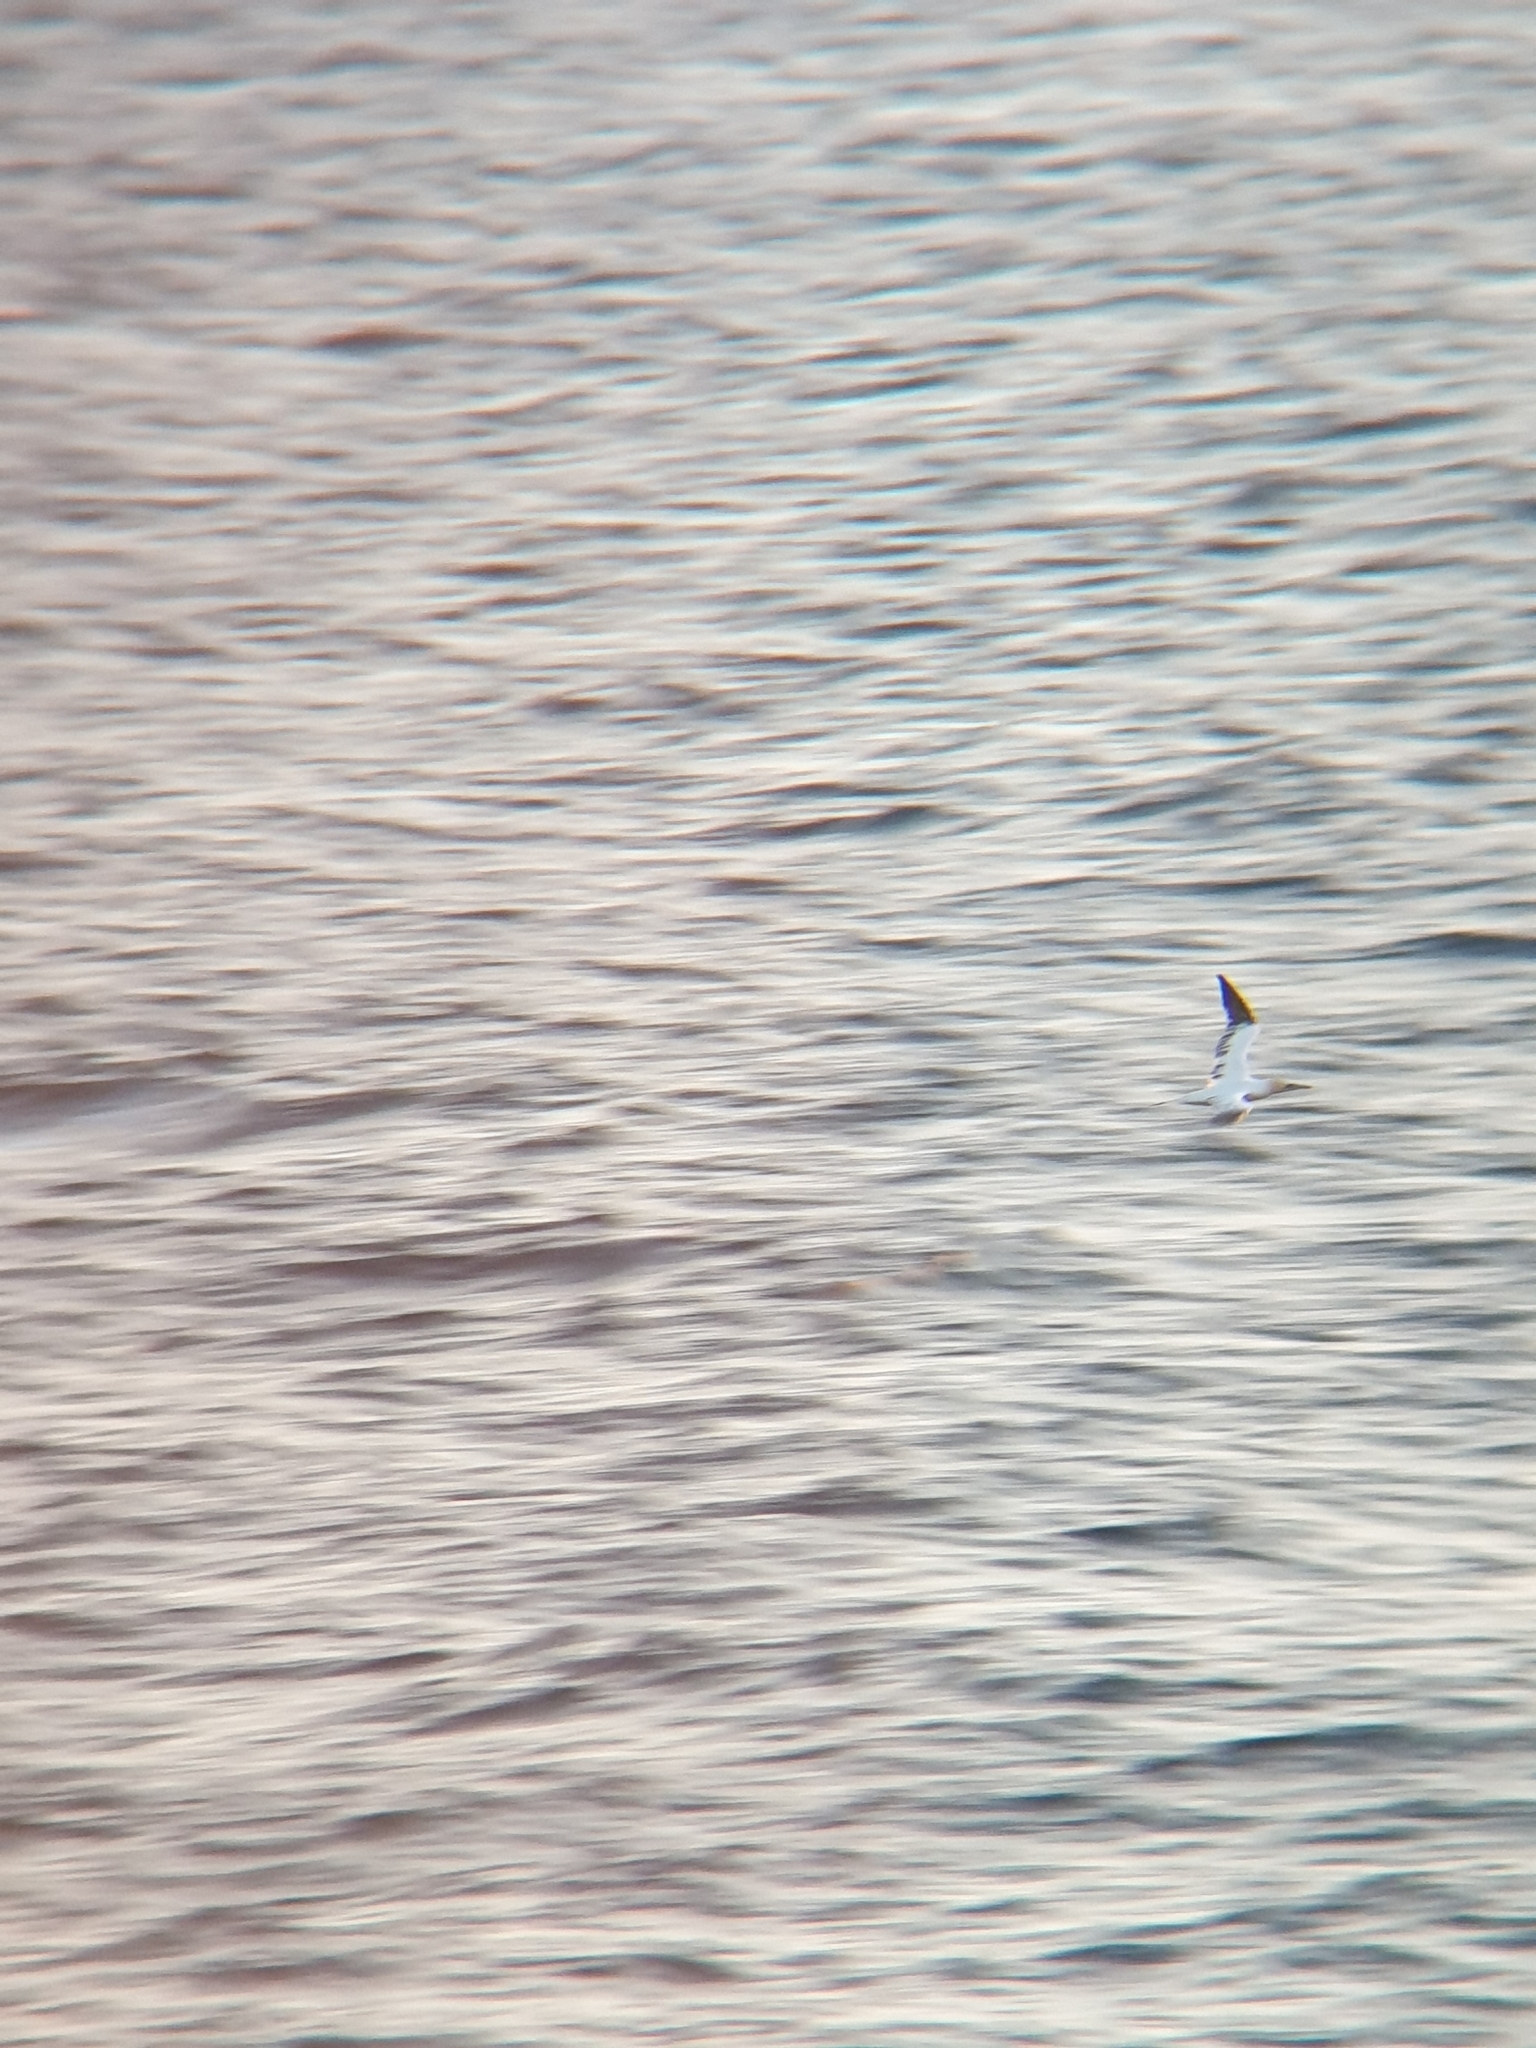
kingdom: Animalia
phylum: Chordata
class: Aves
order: Suliformes
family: Sulidae
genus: Morus
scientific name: Morus bassanus
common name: Northern gannet
